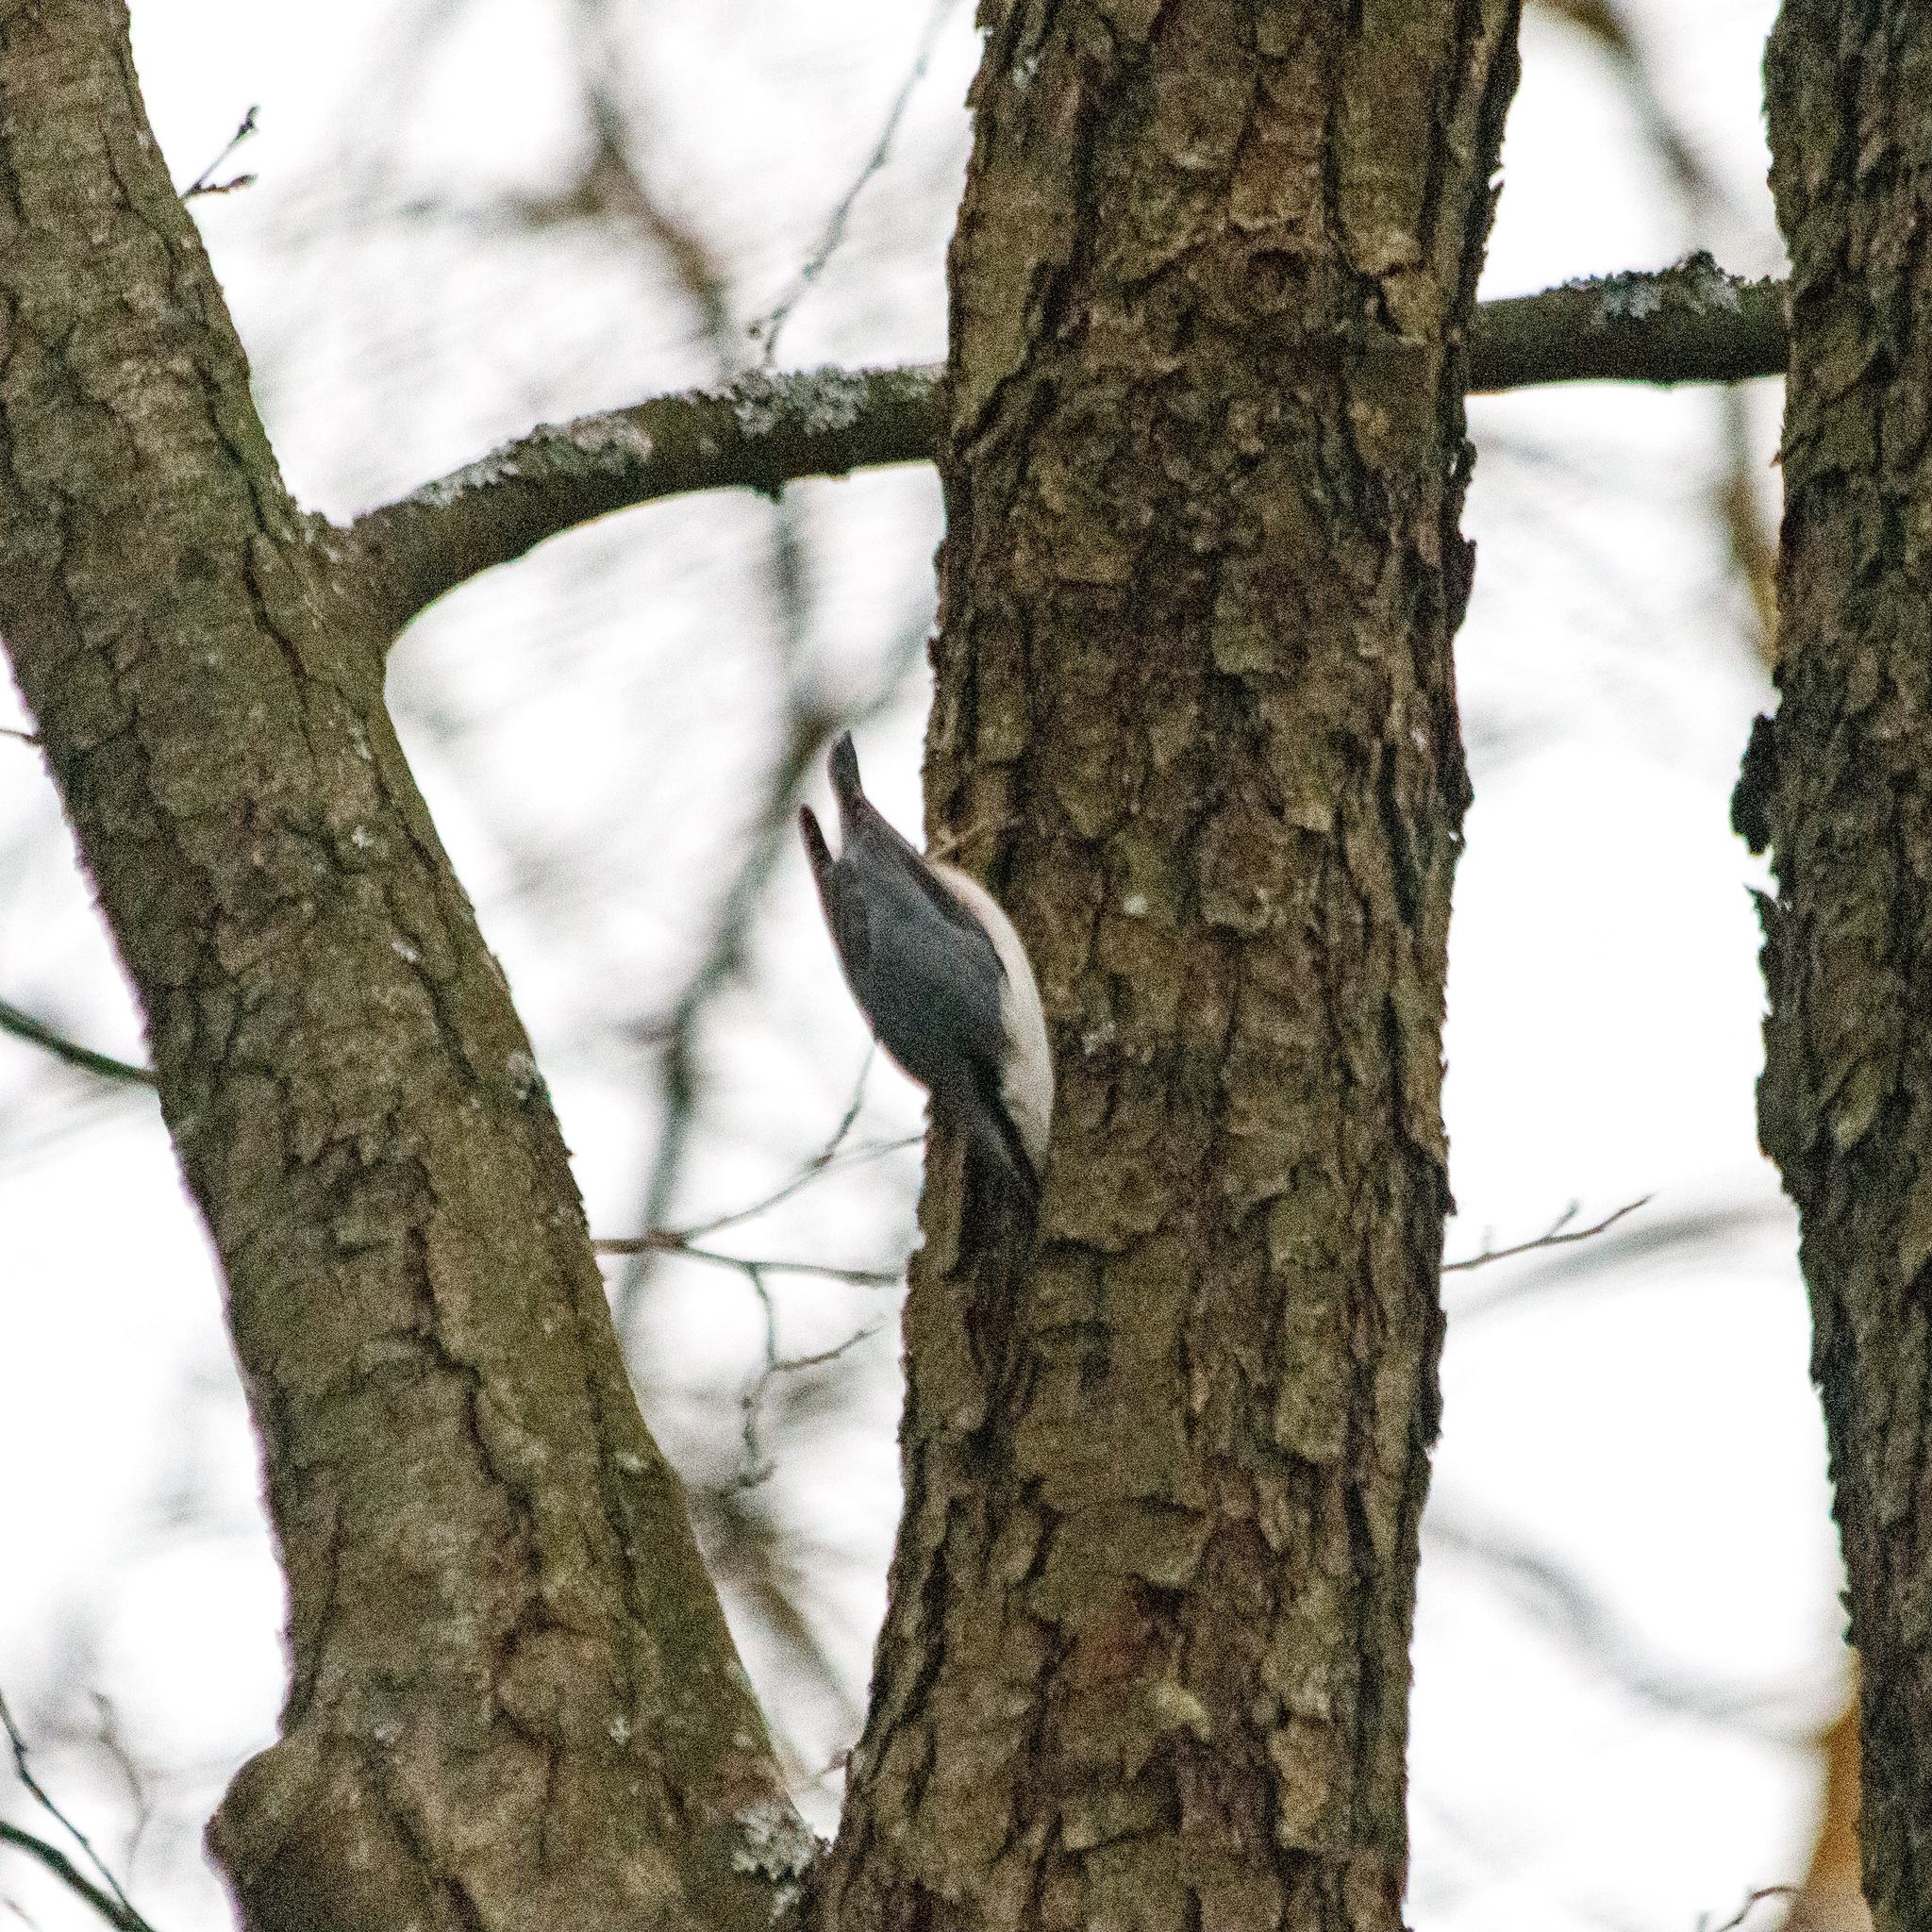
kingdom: Animalia
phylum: Chordata
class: Aves
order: Passeriformes
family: Sittidae
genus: Sitta
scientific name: Sitta europaea
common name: Eurasian nuthatch
